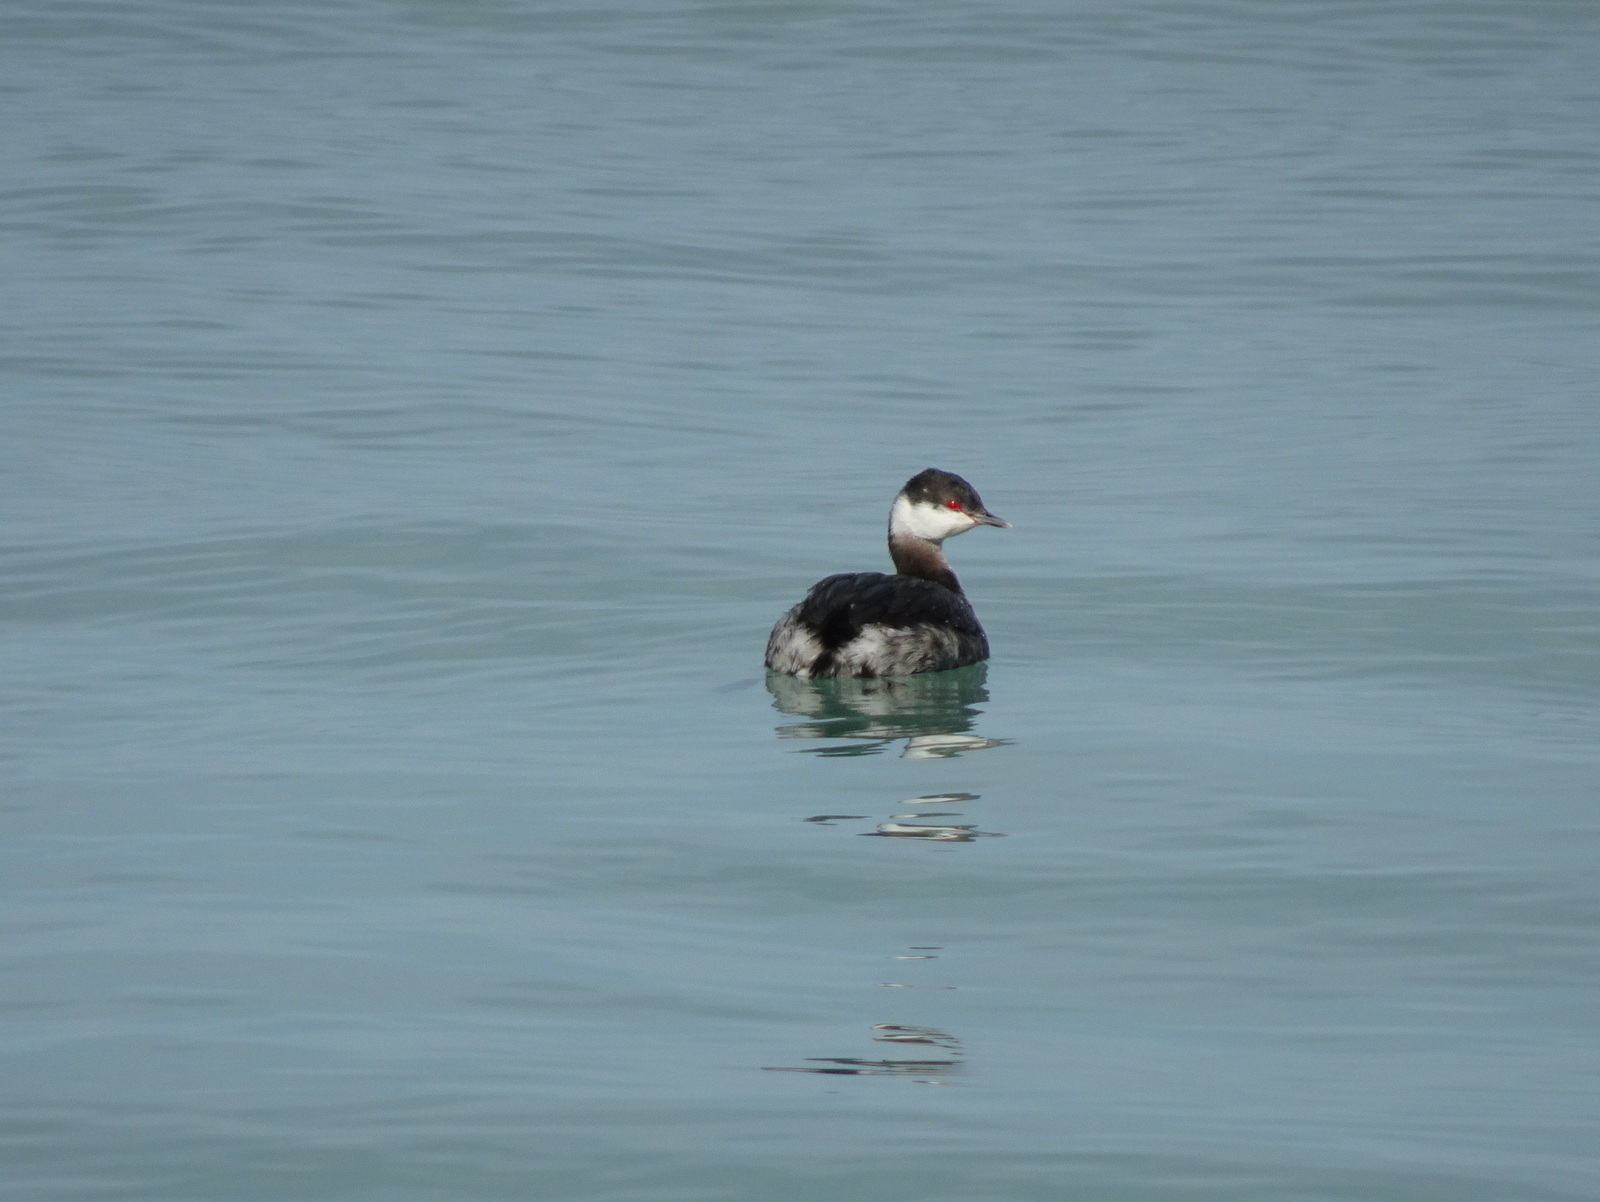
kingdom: Animalia
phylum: Chordata
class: Aves
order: Podicipediformes
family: Podicipedidae
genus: Podiceps
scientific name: Podiceps auritus
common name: Horned grebe
